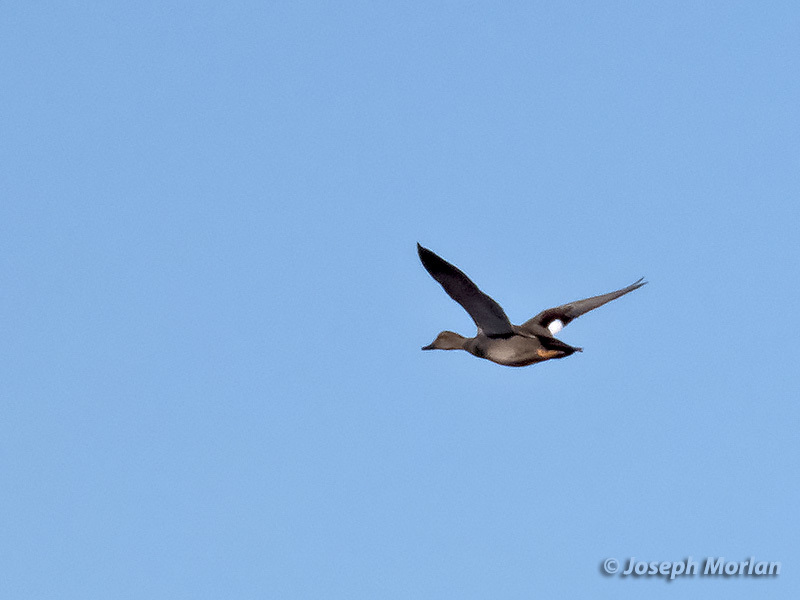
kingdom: Animalia
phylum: Chordata
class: Aves
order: Anseriformes
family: Anatidae
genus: Mareca
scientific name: Mareca strepera
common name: Gadwall
